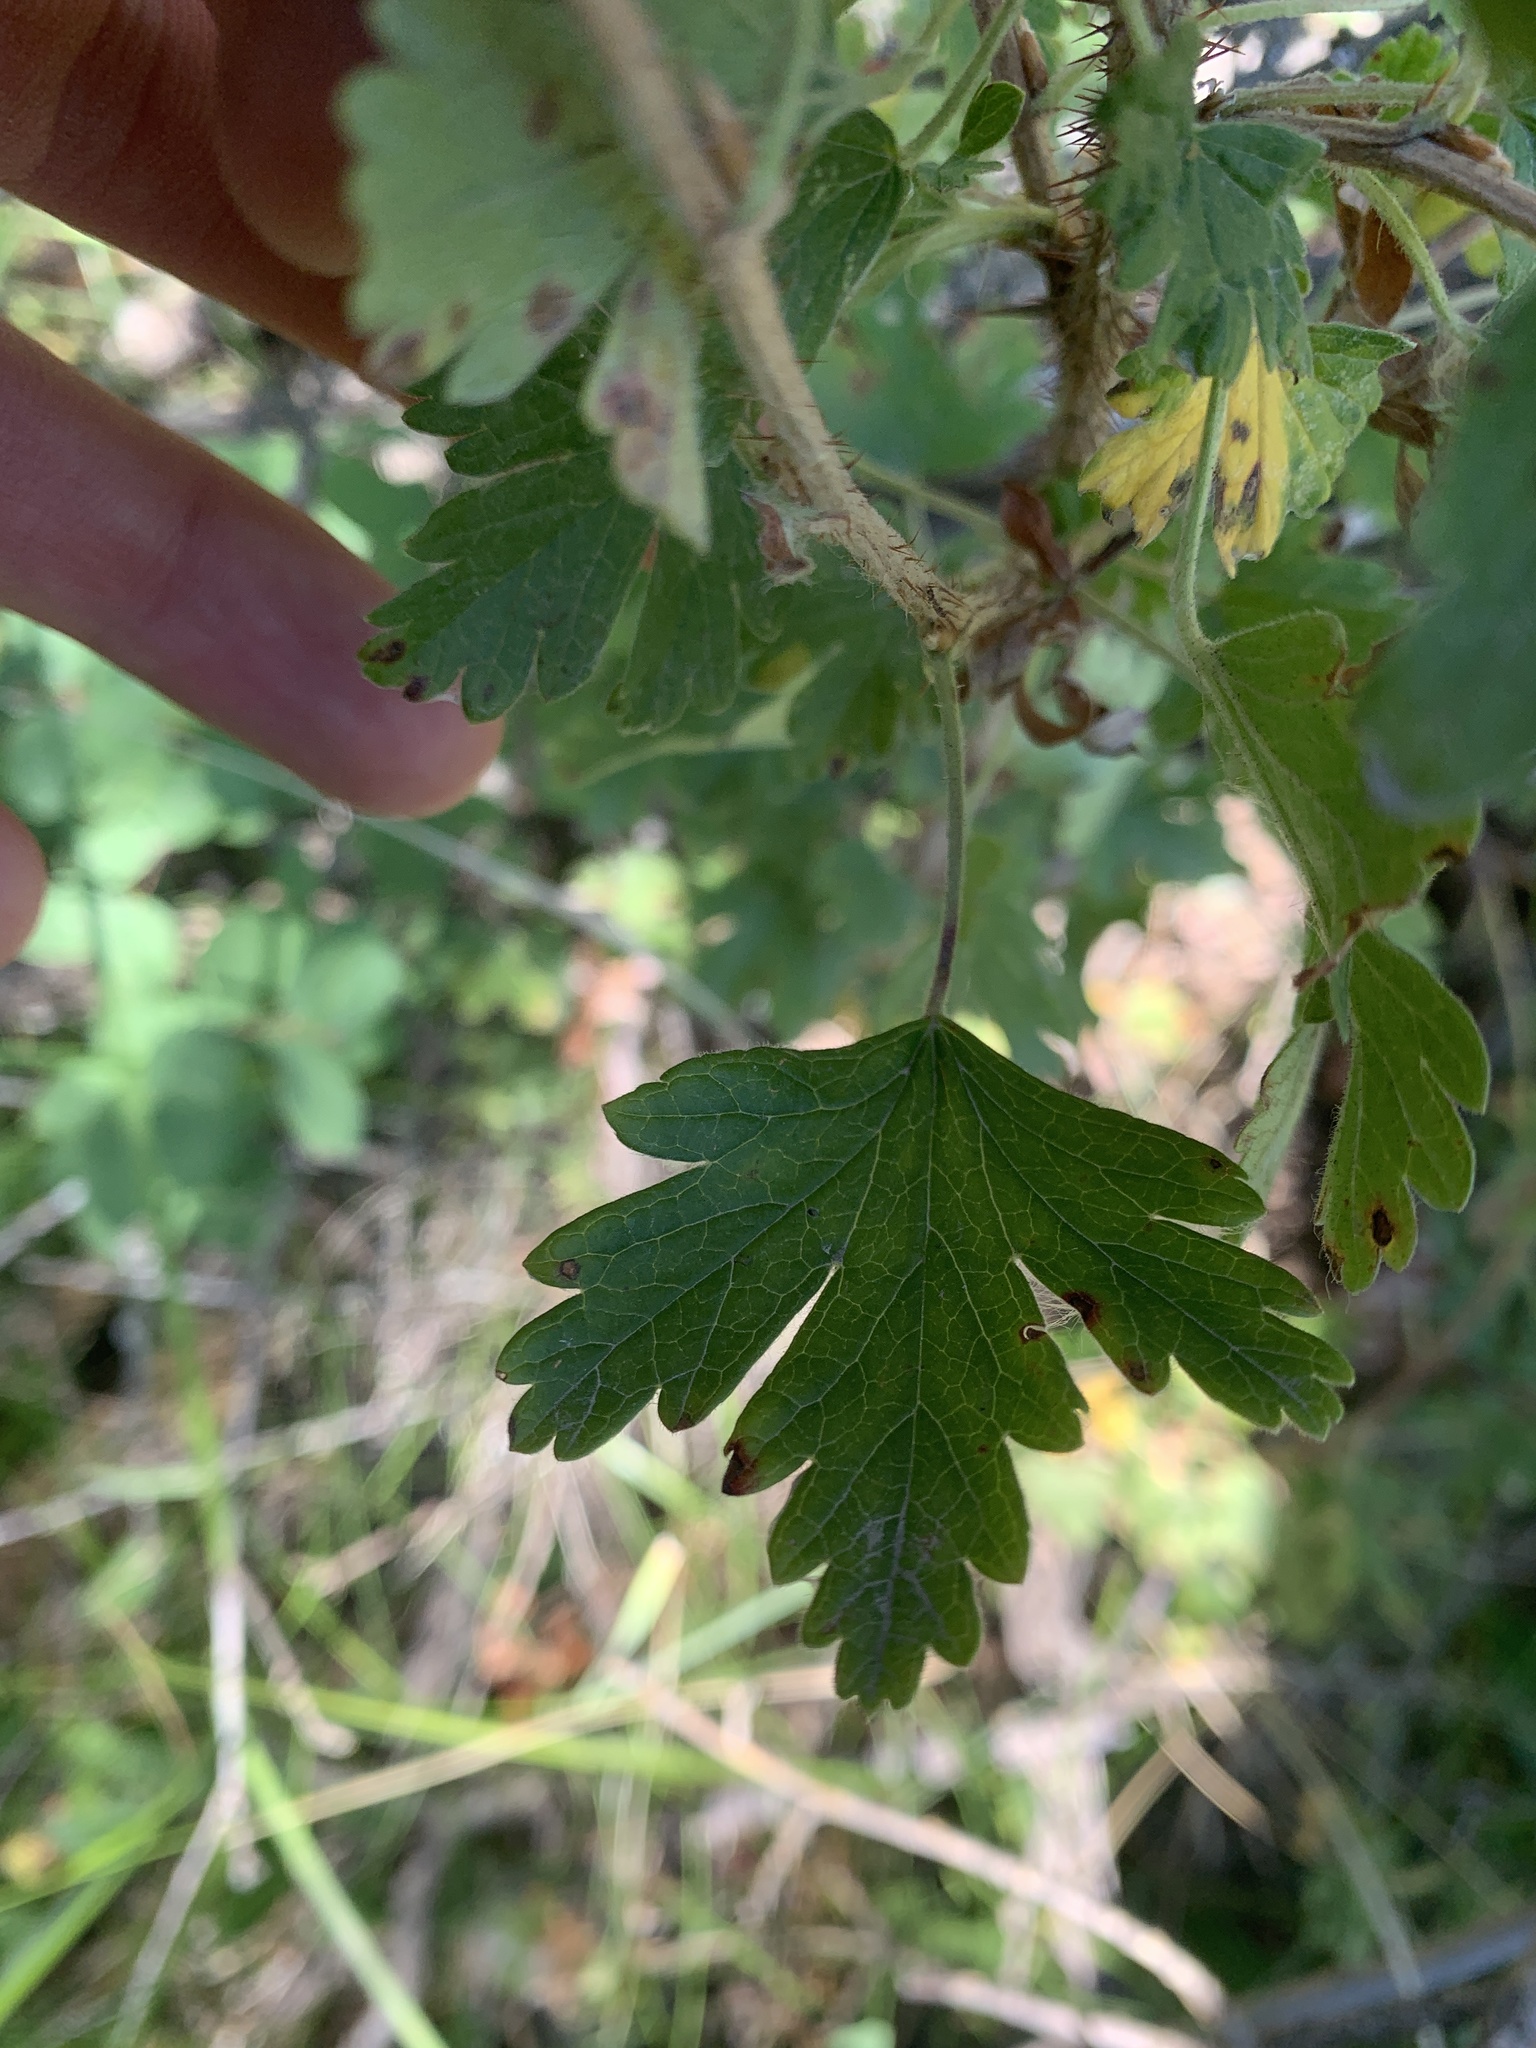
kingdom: Plantae
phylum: Tracheophyta
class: Magnoliopsida
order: Saxifragales
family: Grossulariaceae
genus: Ribes
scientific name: Ribes oxyacanthoides
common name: Northern gooseberry
